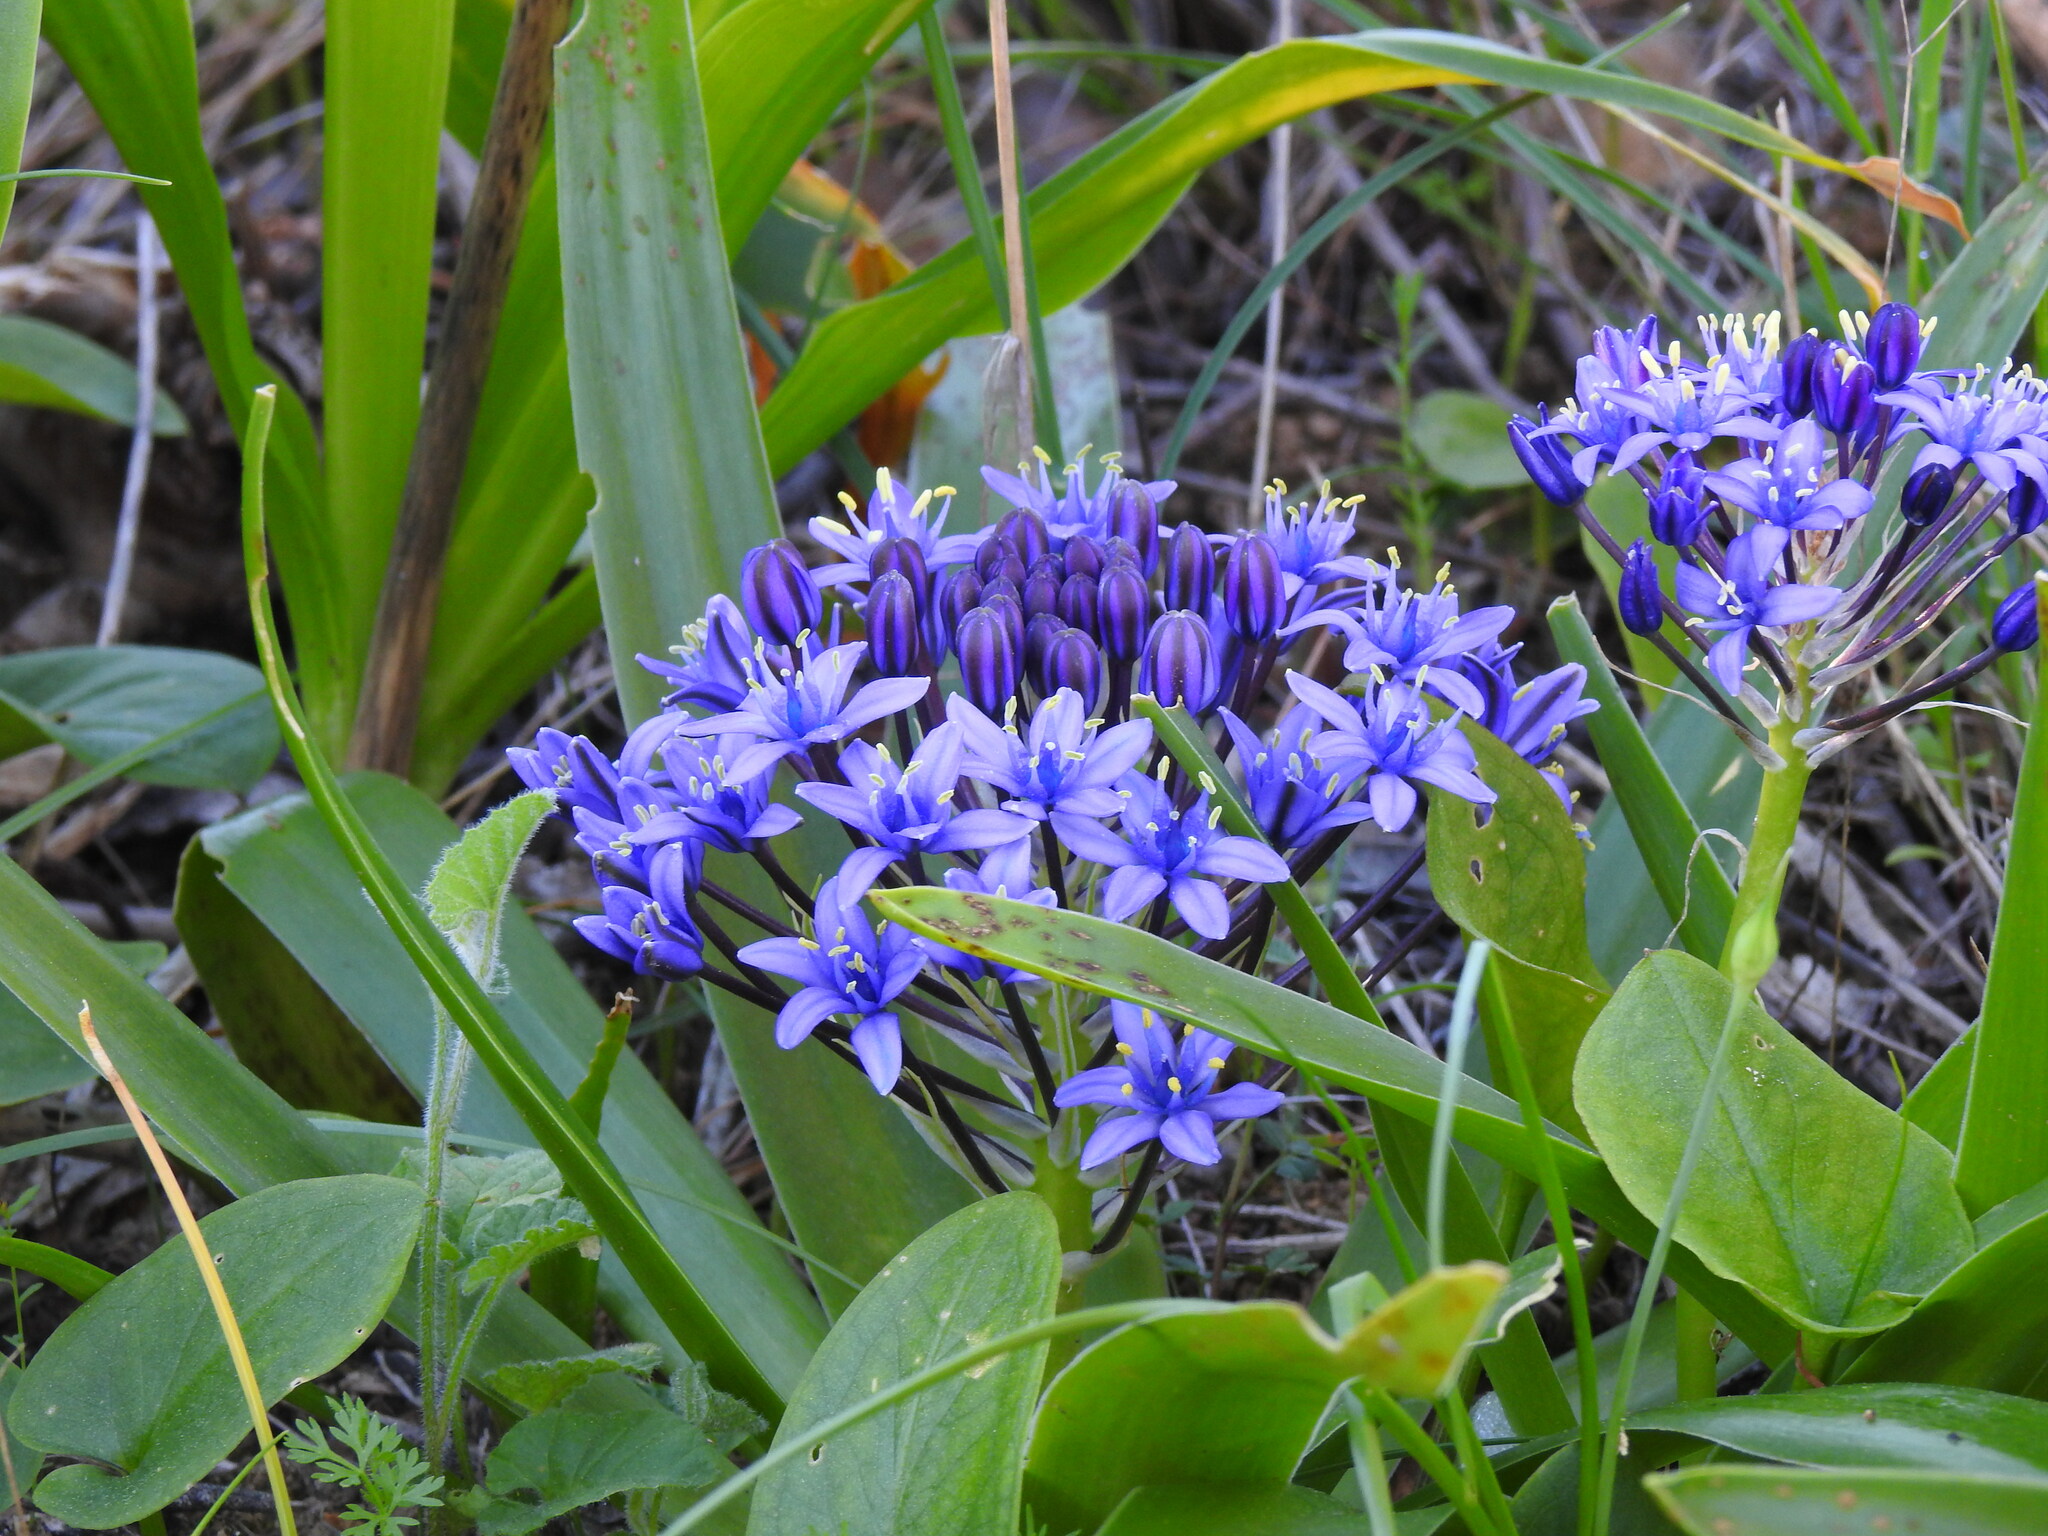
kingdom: Plantae
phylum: Tracheophyta
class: Liliopsida
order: Asparagales
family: Asparagaceae
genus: Scilla
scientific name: Scilla peruviana
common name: Portuguese squill
